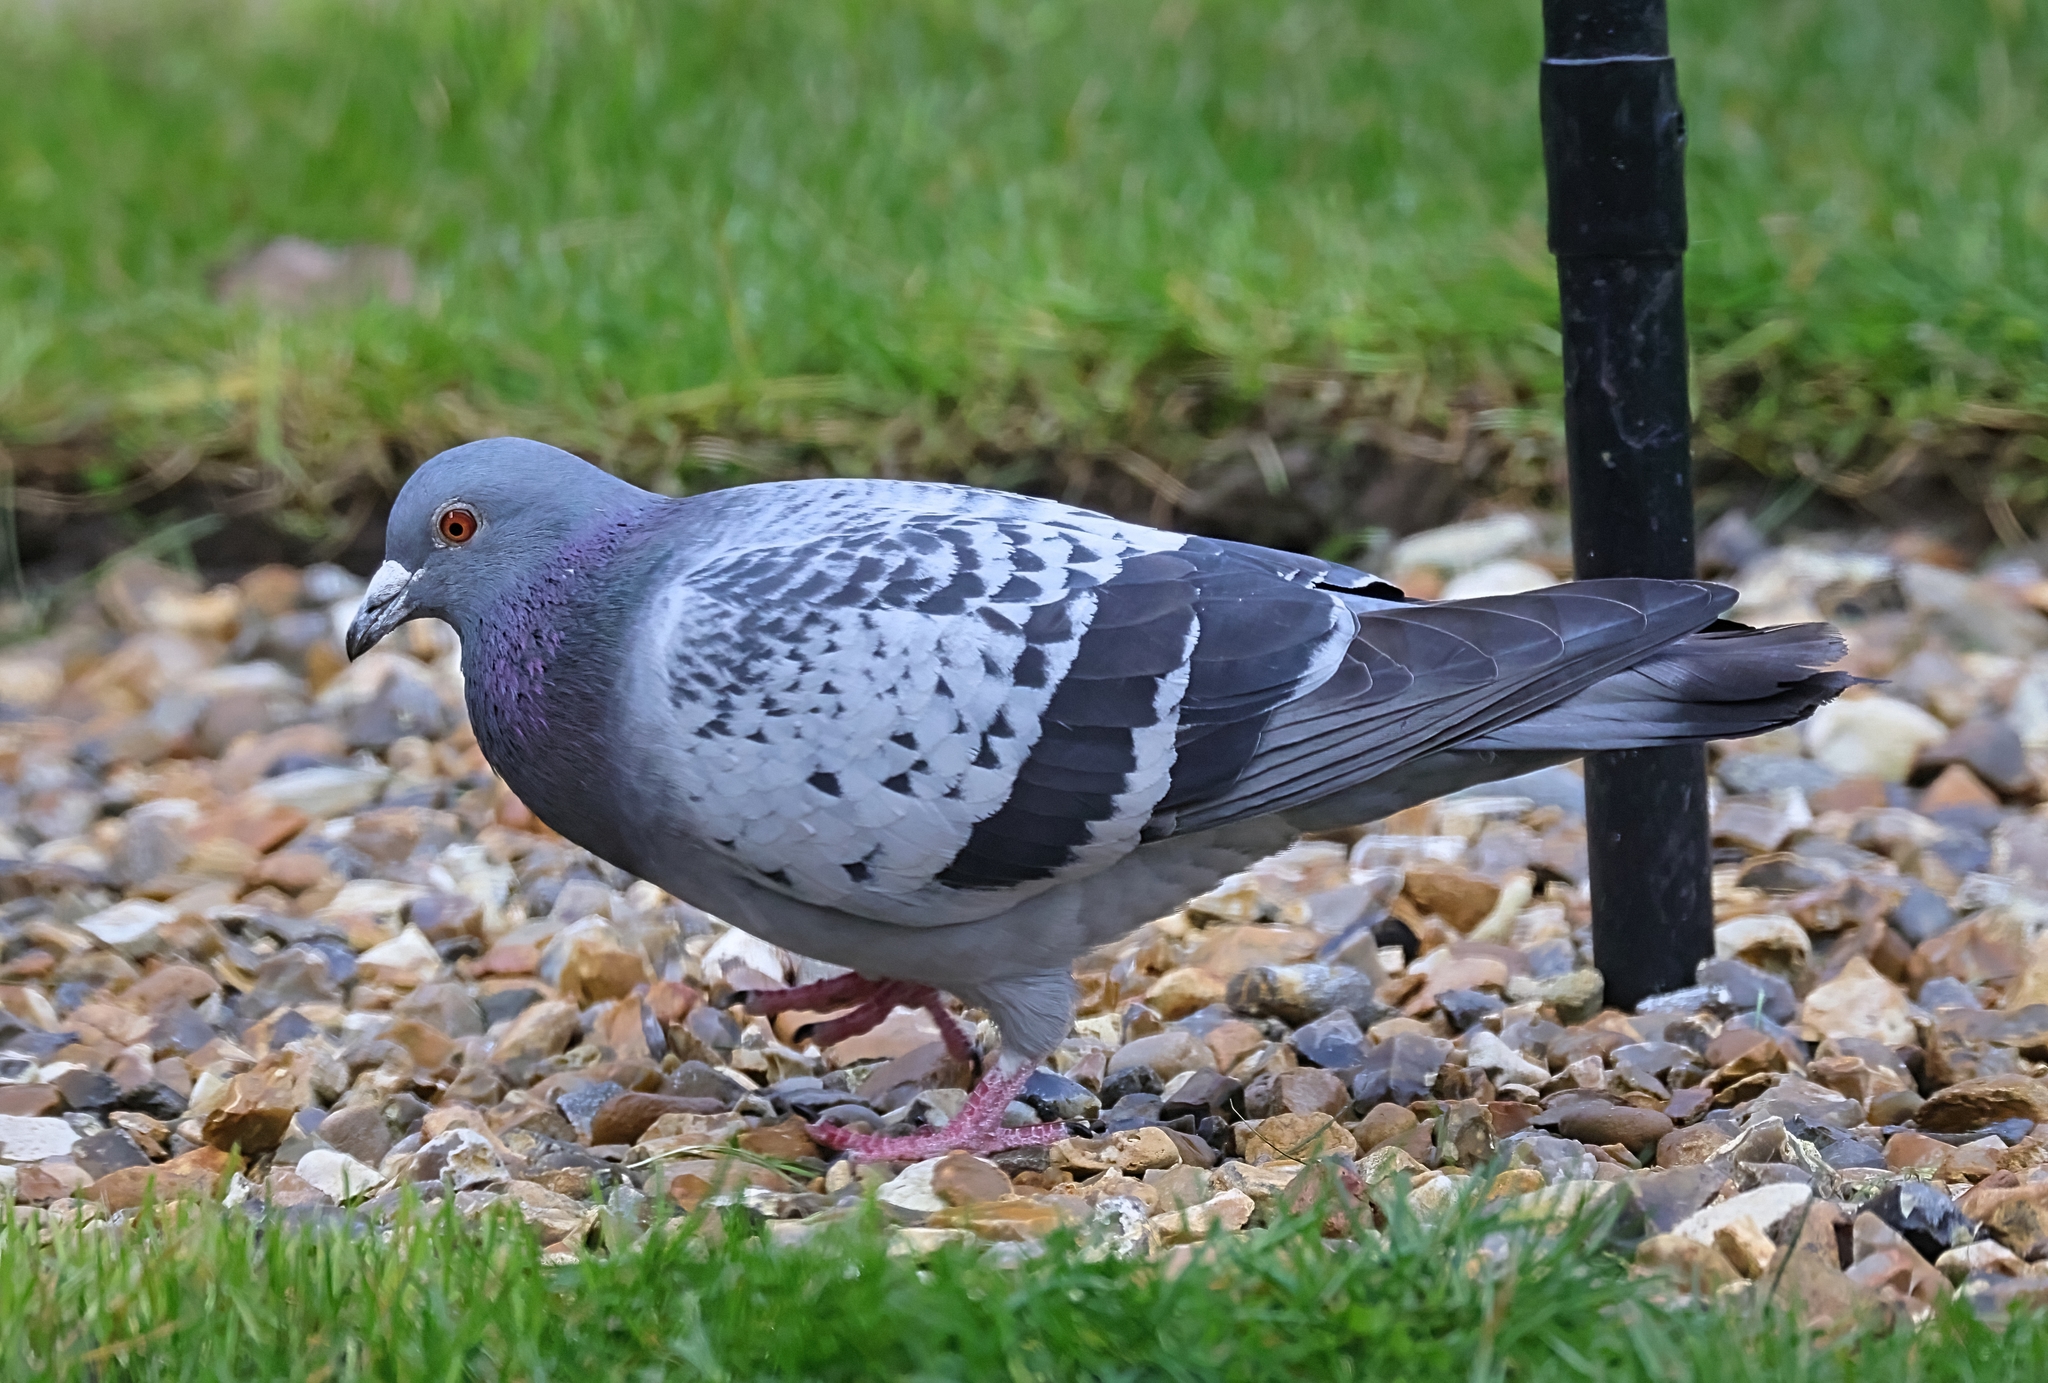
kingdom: Animalia
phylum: Chordata
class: Aves
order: Columbiformes
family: Columbidae
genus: Columba
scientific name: Columba livia
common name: Rock pigeon
